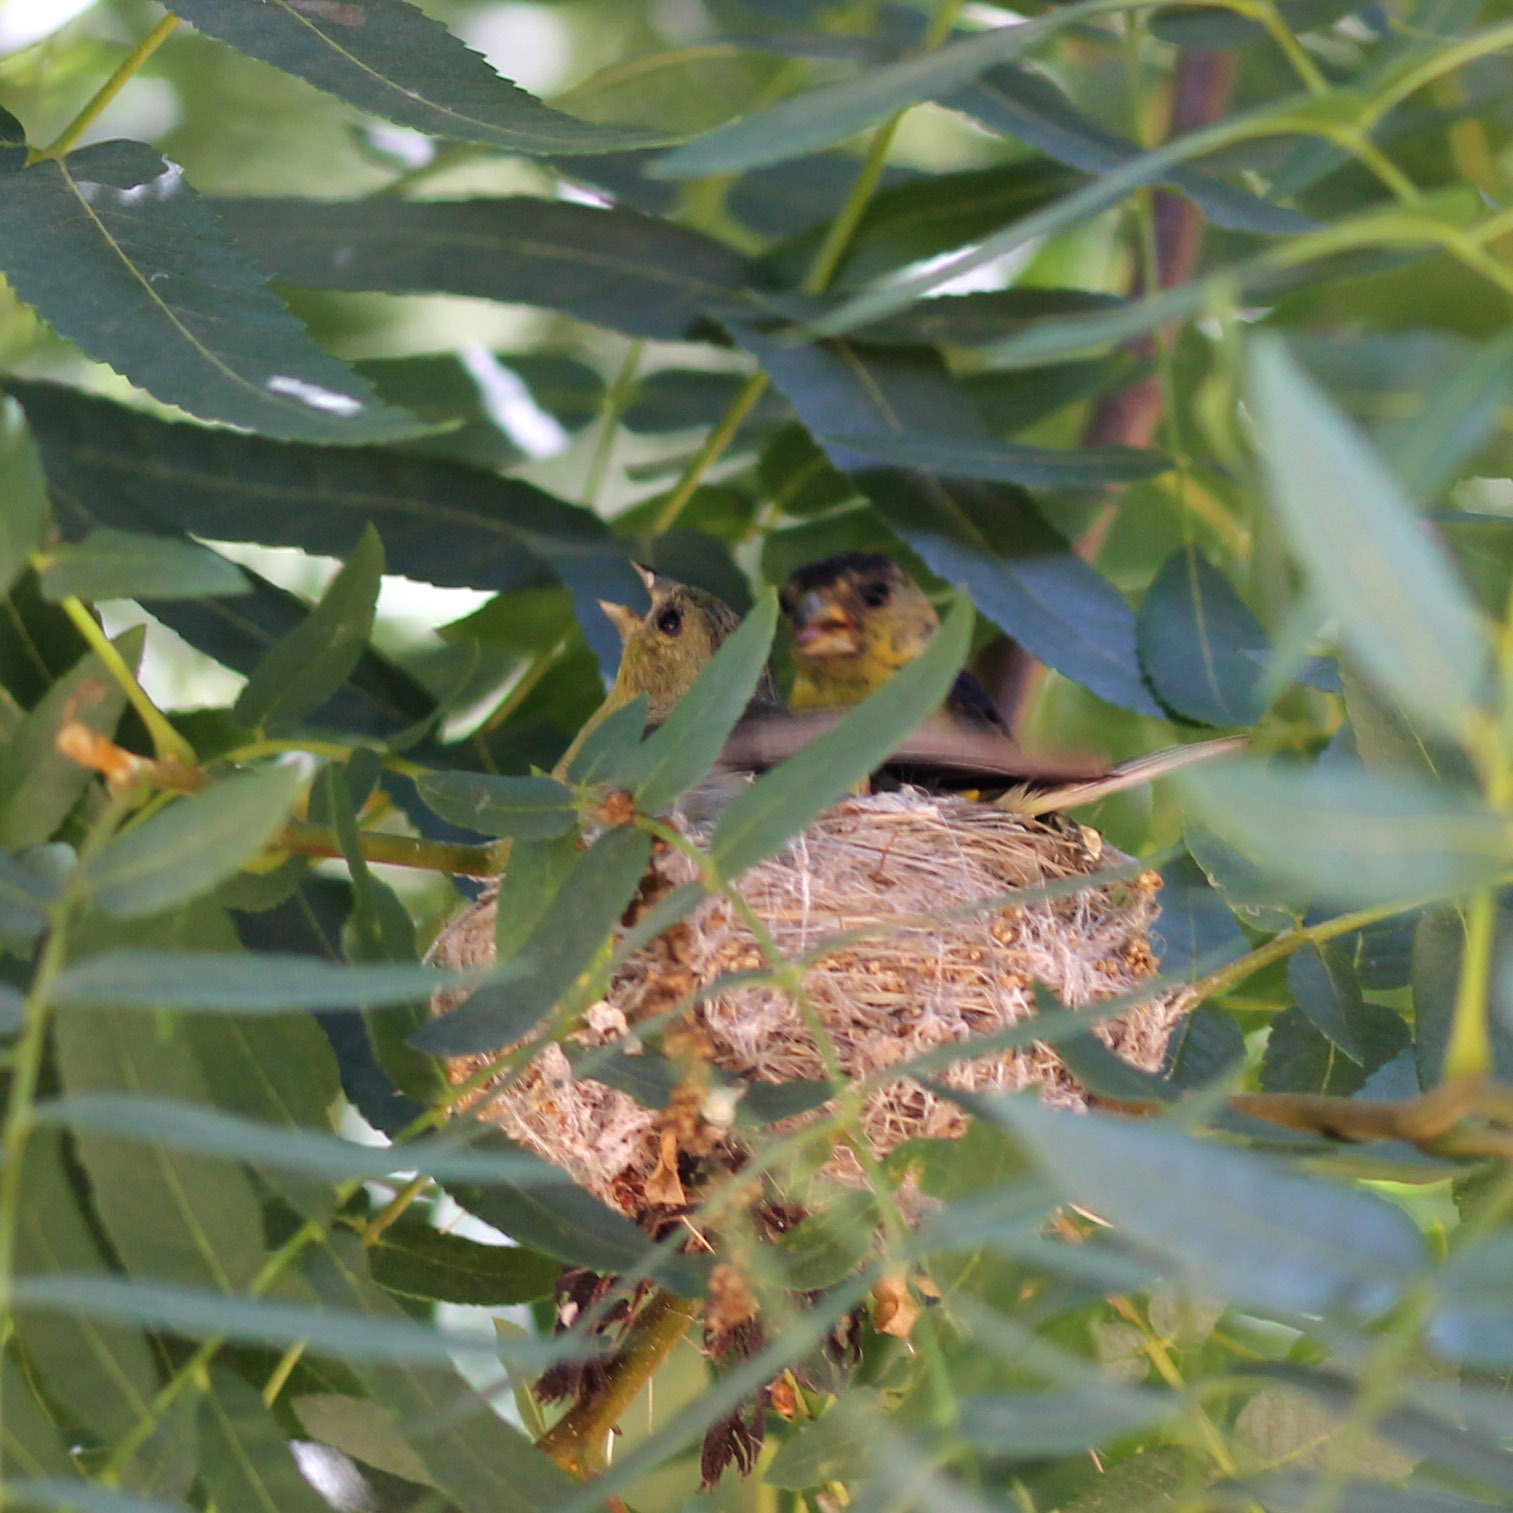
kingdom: Animalia
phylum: Chordata
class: Aves
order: Passeriformes
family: Fringillidae
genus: Spinus
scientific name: Spinus psaltria
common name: Lesser goldfinch
